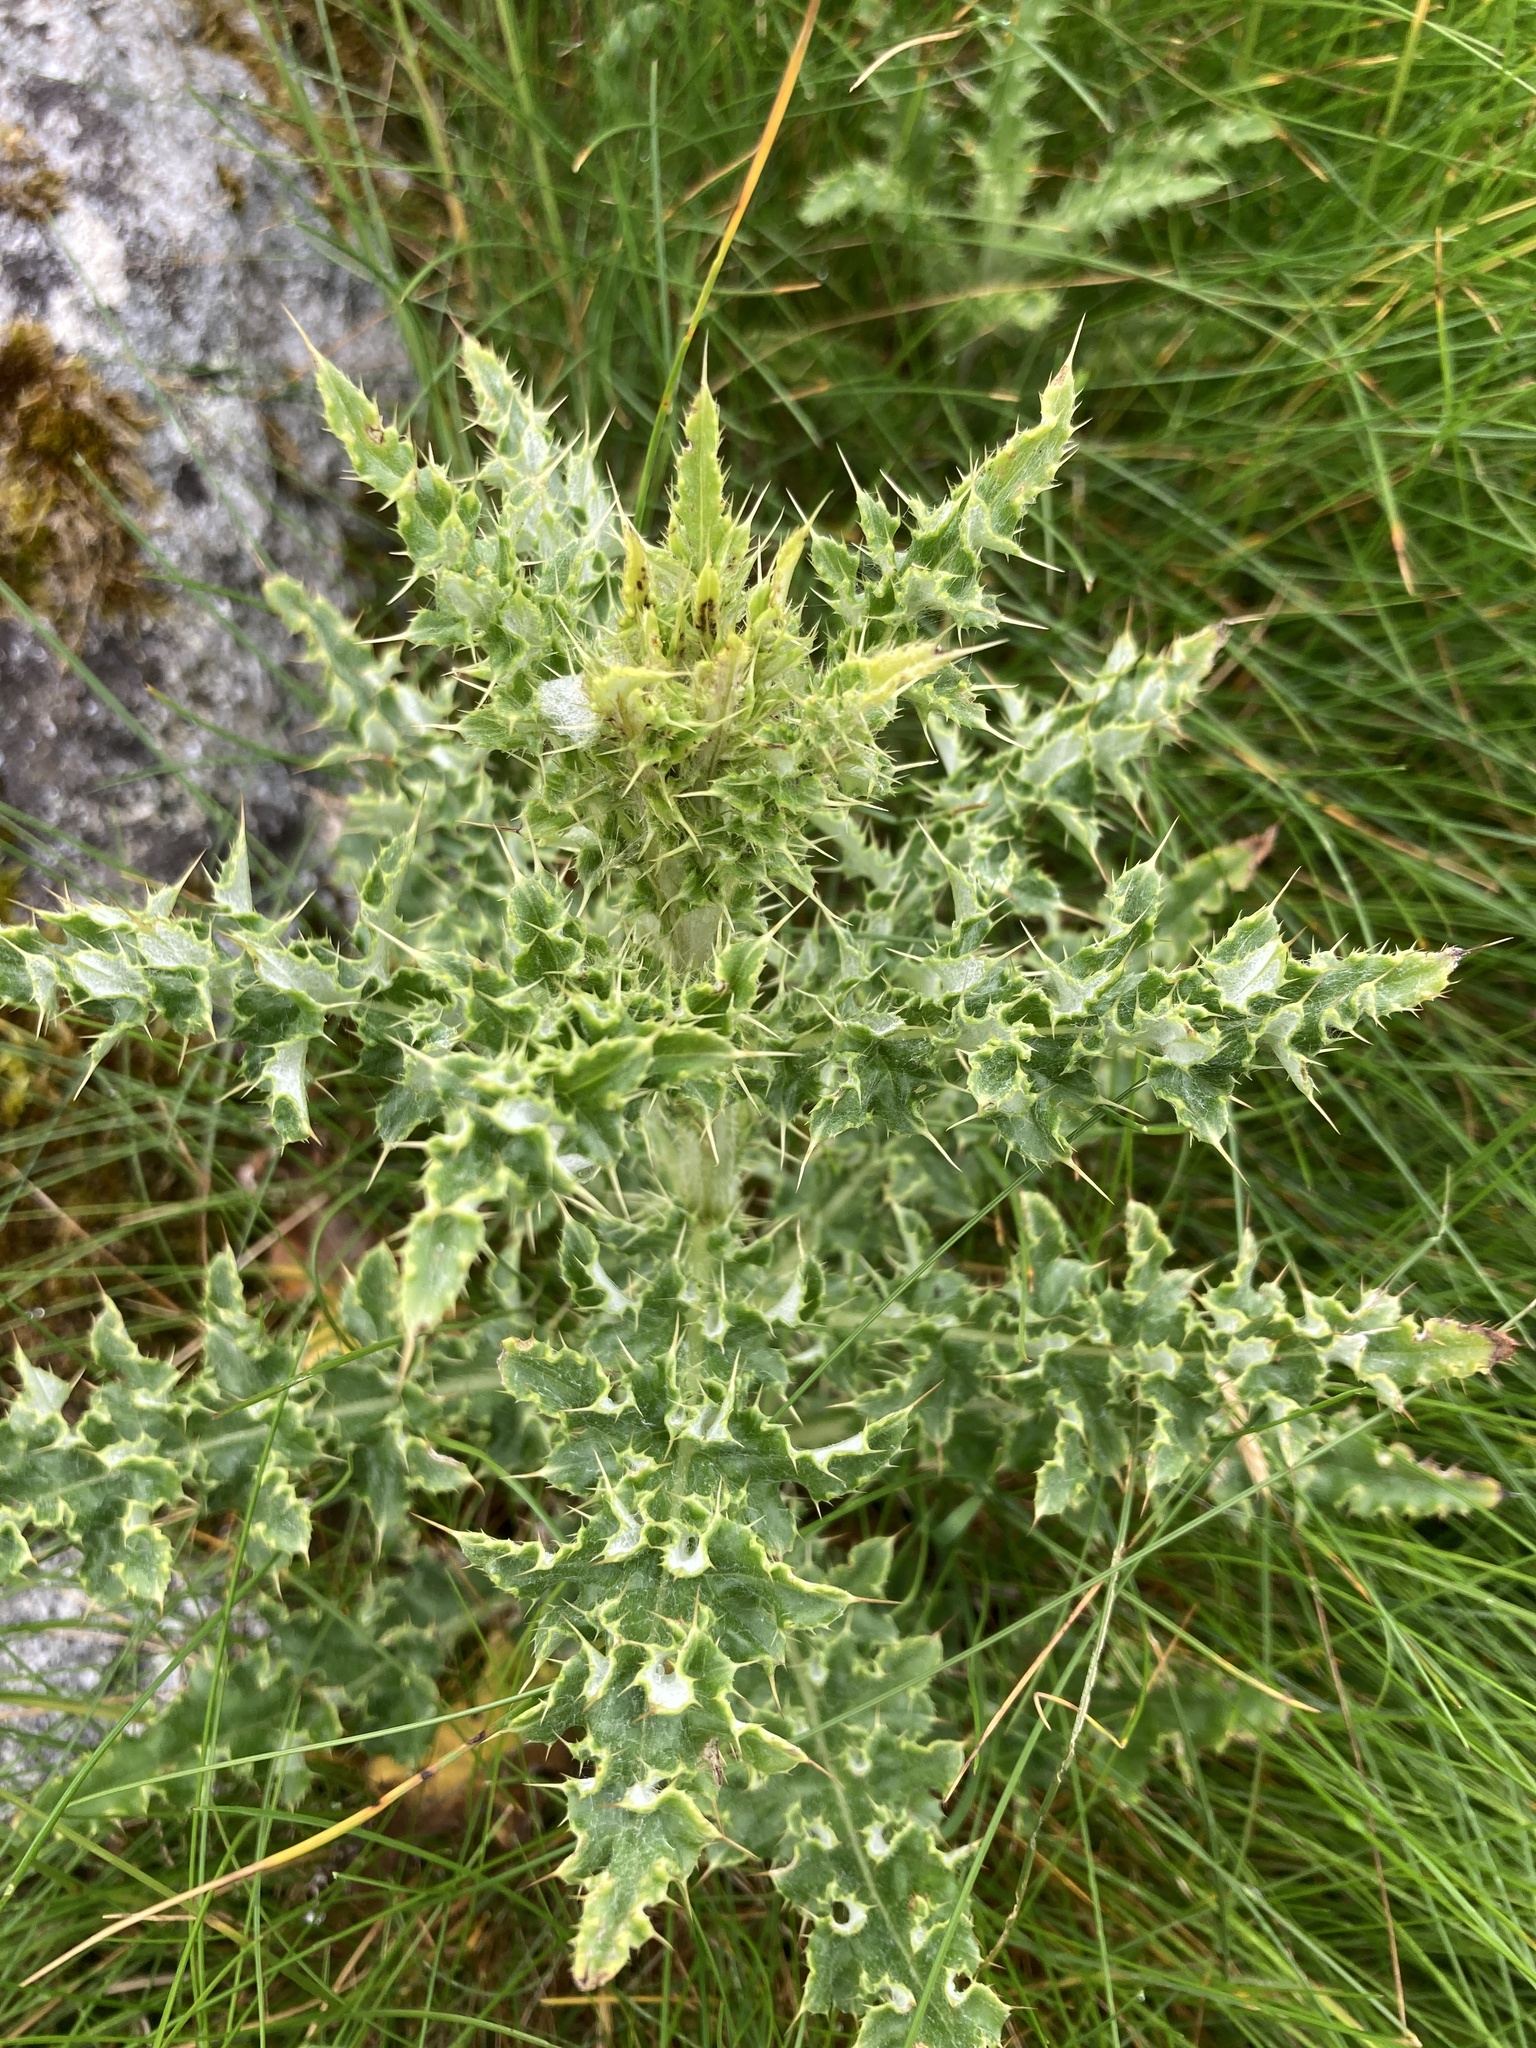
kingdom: Plantae
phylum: Tracheophyta
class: Magnoliopsida
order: Asterales
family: Asteraceae
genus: Cirsium
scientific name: Cirsium arvense
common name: Creeping thistle
